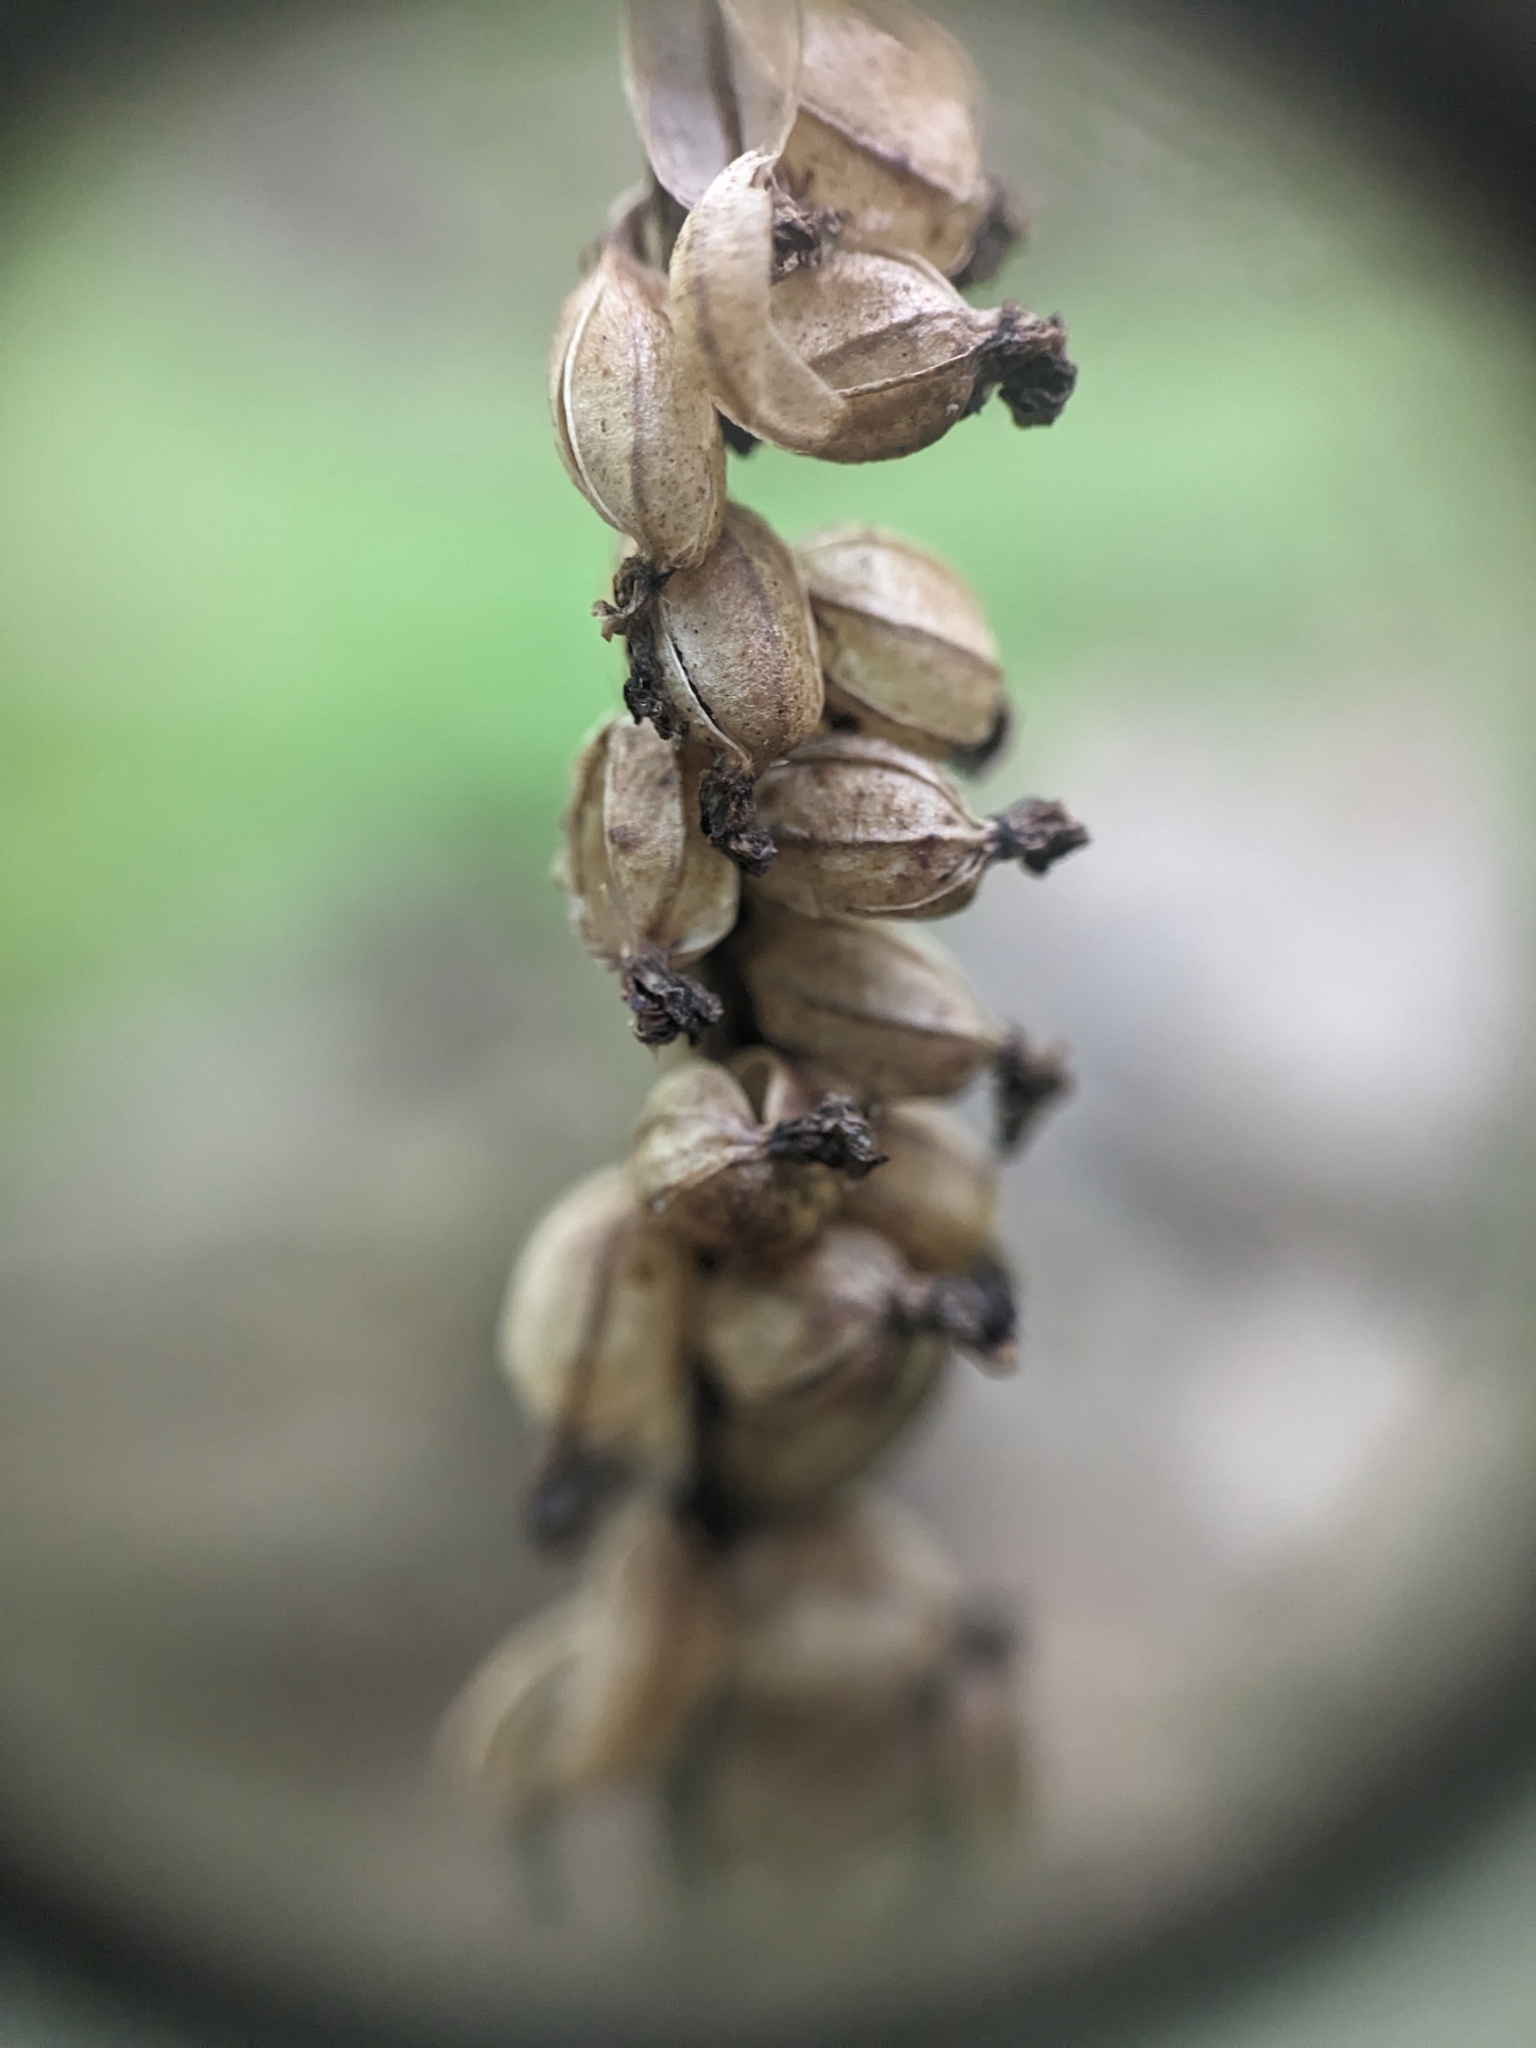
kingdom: Plantae
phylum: Tracheophyta
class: Liliopsida
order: Asparagales
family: Orchidaceae
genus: Goodyera
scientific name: Goodyera pubescens
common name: Downy rattlesnake-plantain
